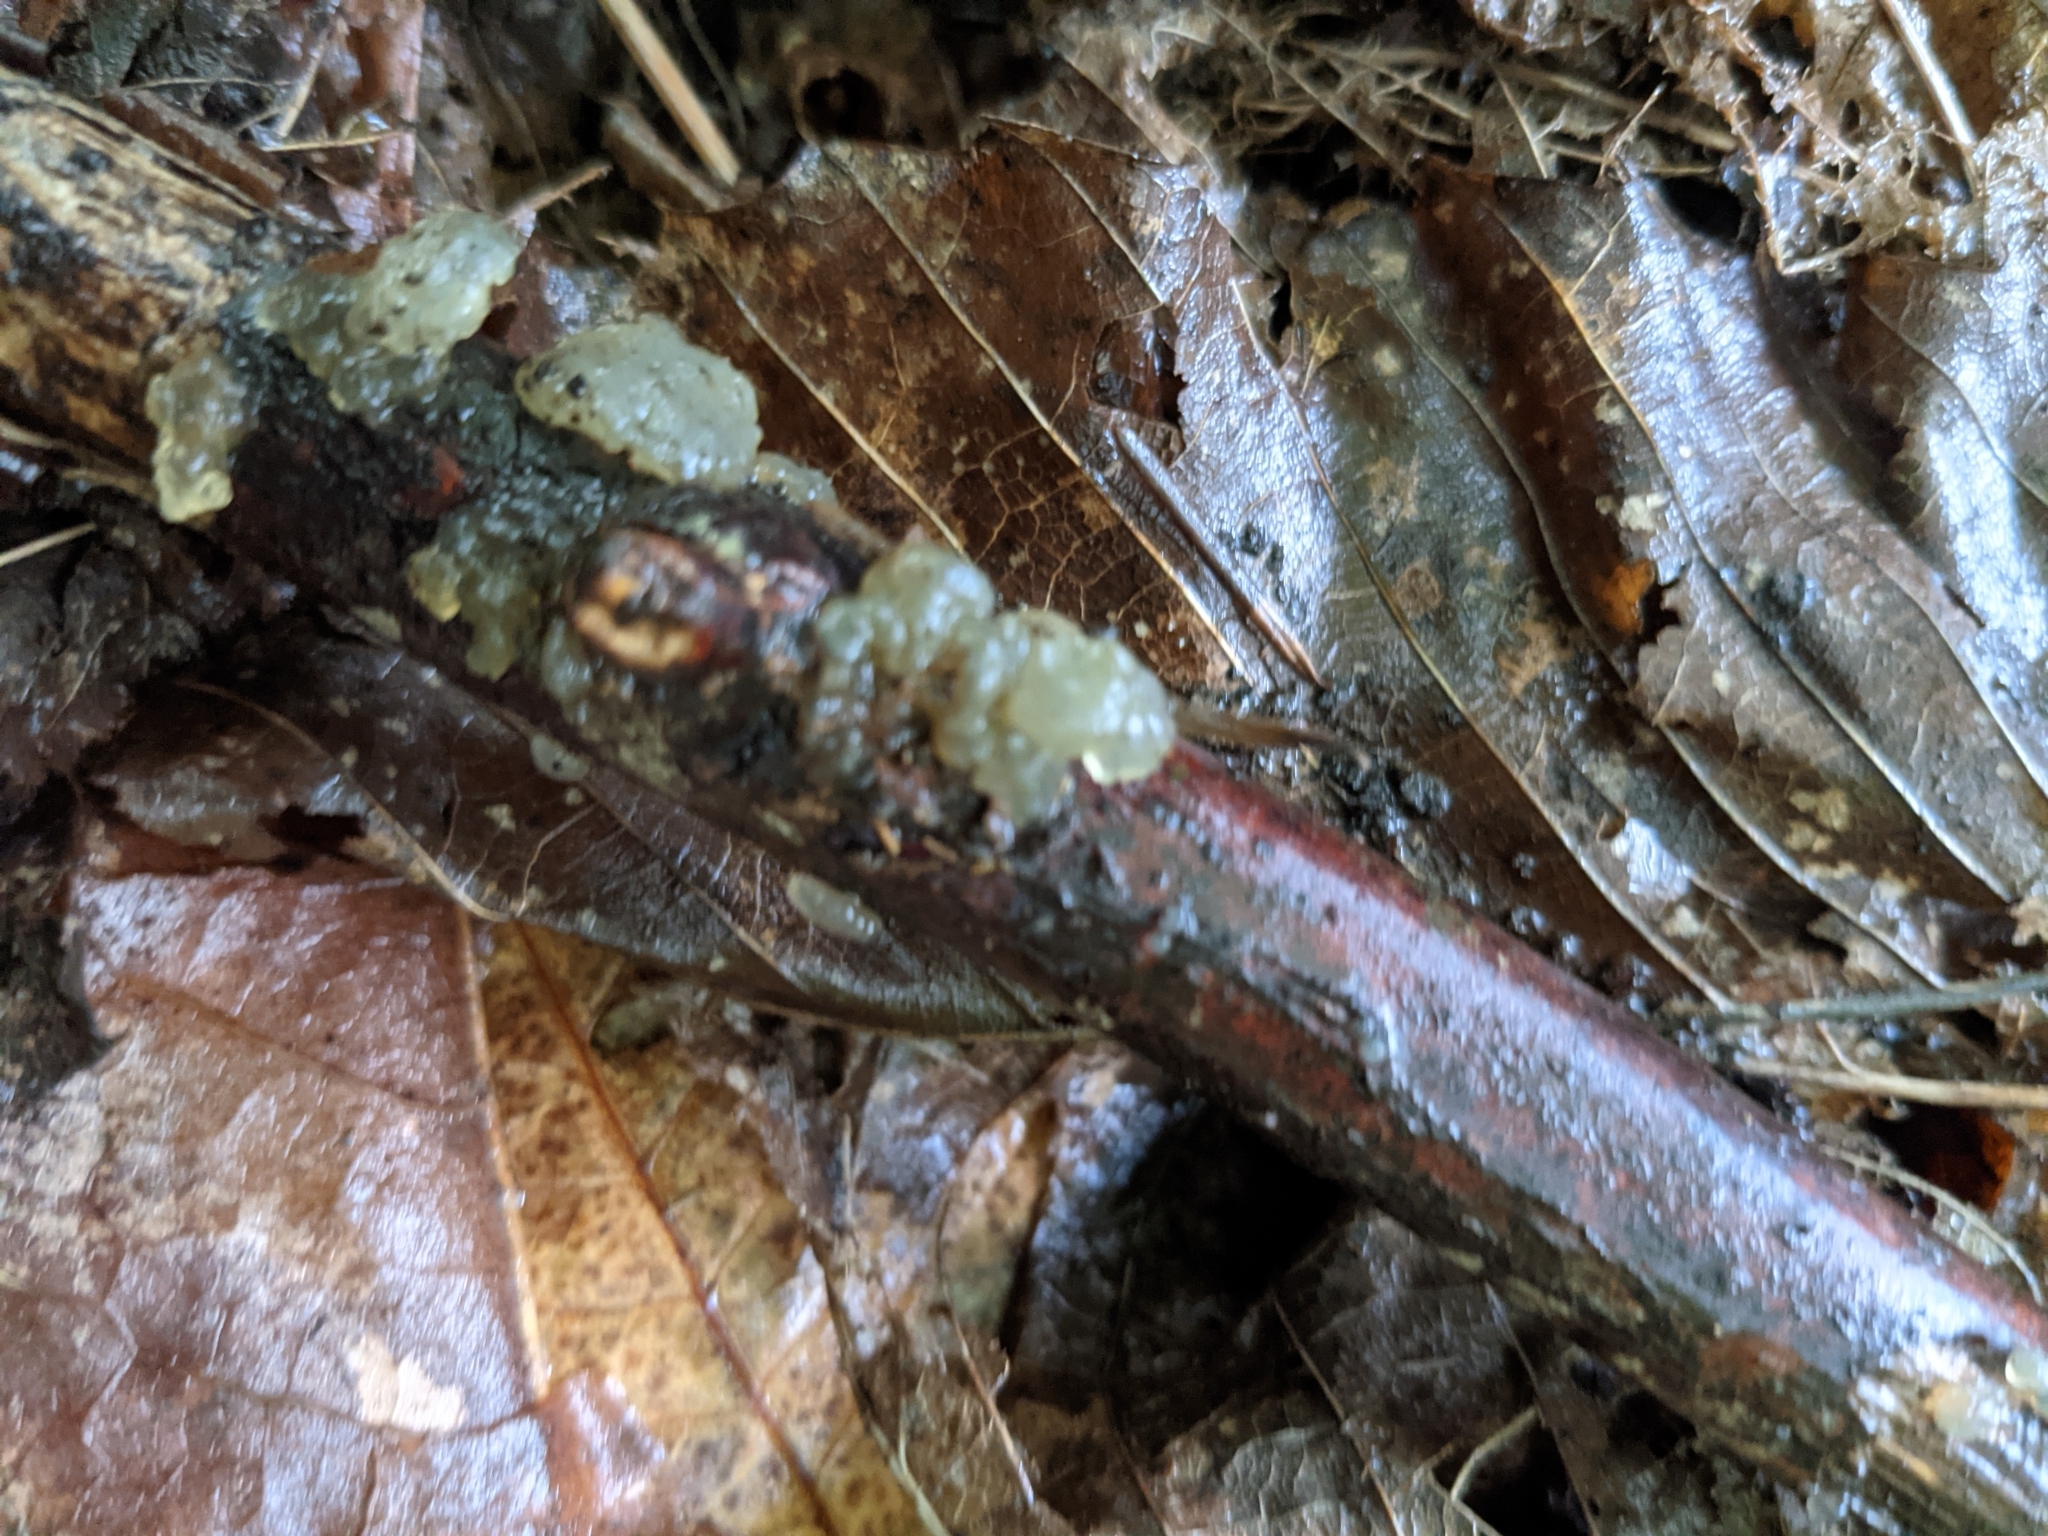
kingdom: Fungi
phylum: Basidiomycota
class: Agaricomycetes
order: Auriculariales
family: Hyaloriaceae
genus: Myxarium
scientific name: Myxarium nucleatum
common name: Crystal brain fungus
